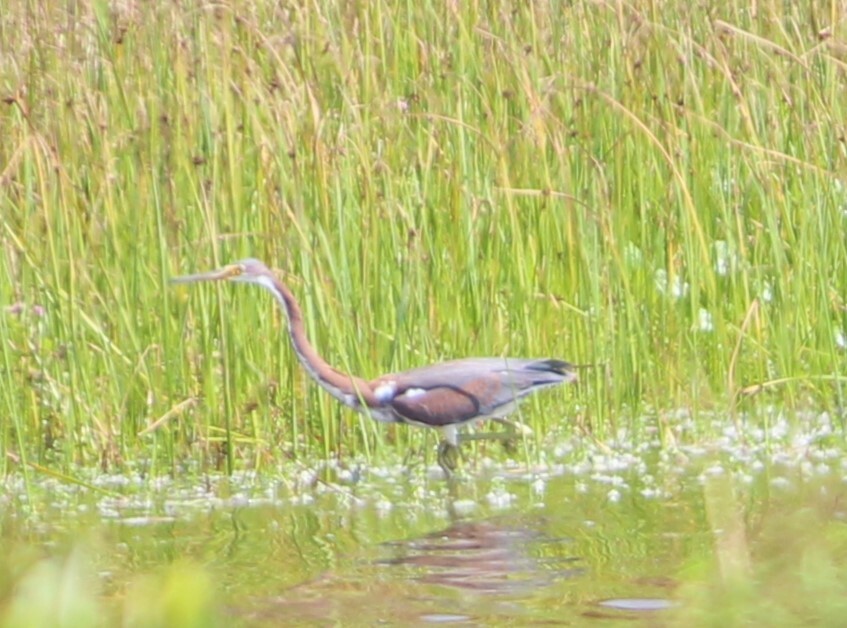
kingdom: Animalia
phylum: Chordata
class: Aves
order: Pelecaniformes
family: Ardeidae
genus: Egretta
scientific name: Egretta tricolor
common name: Tricolored heron
